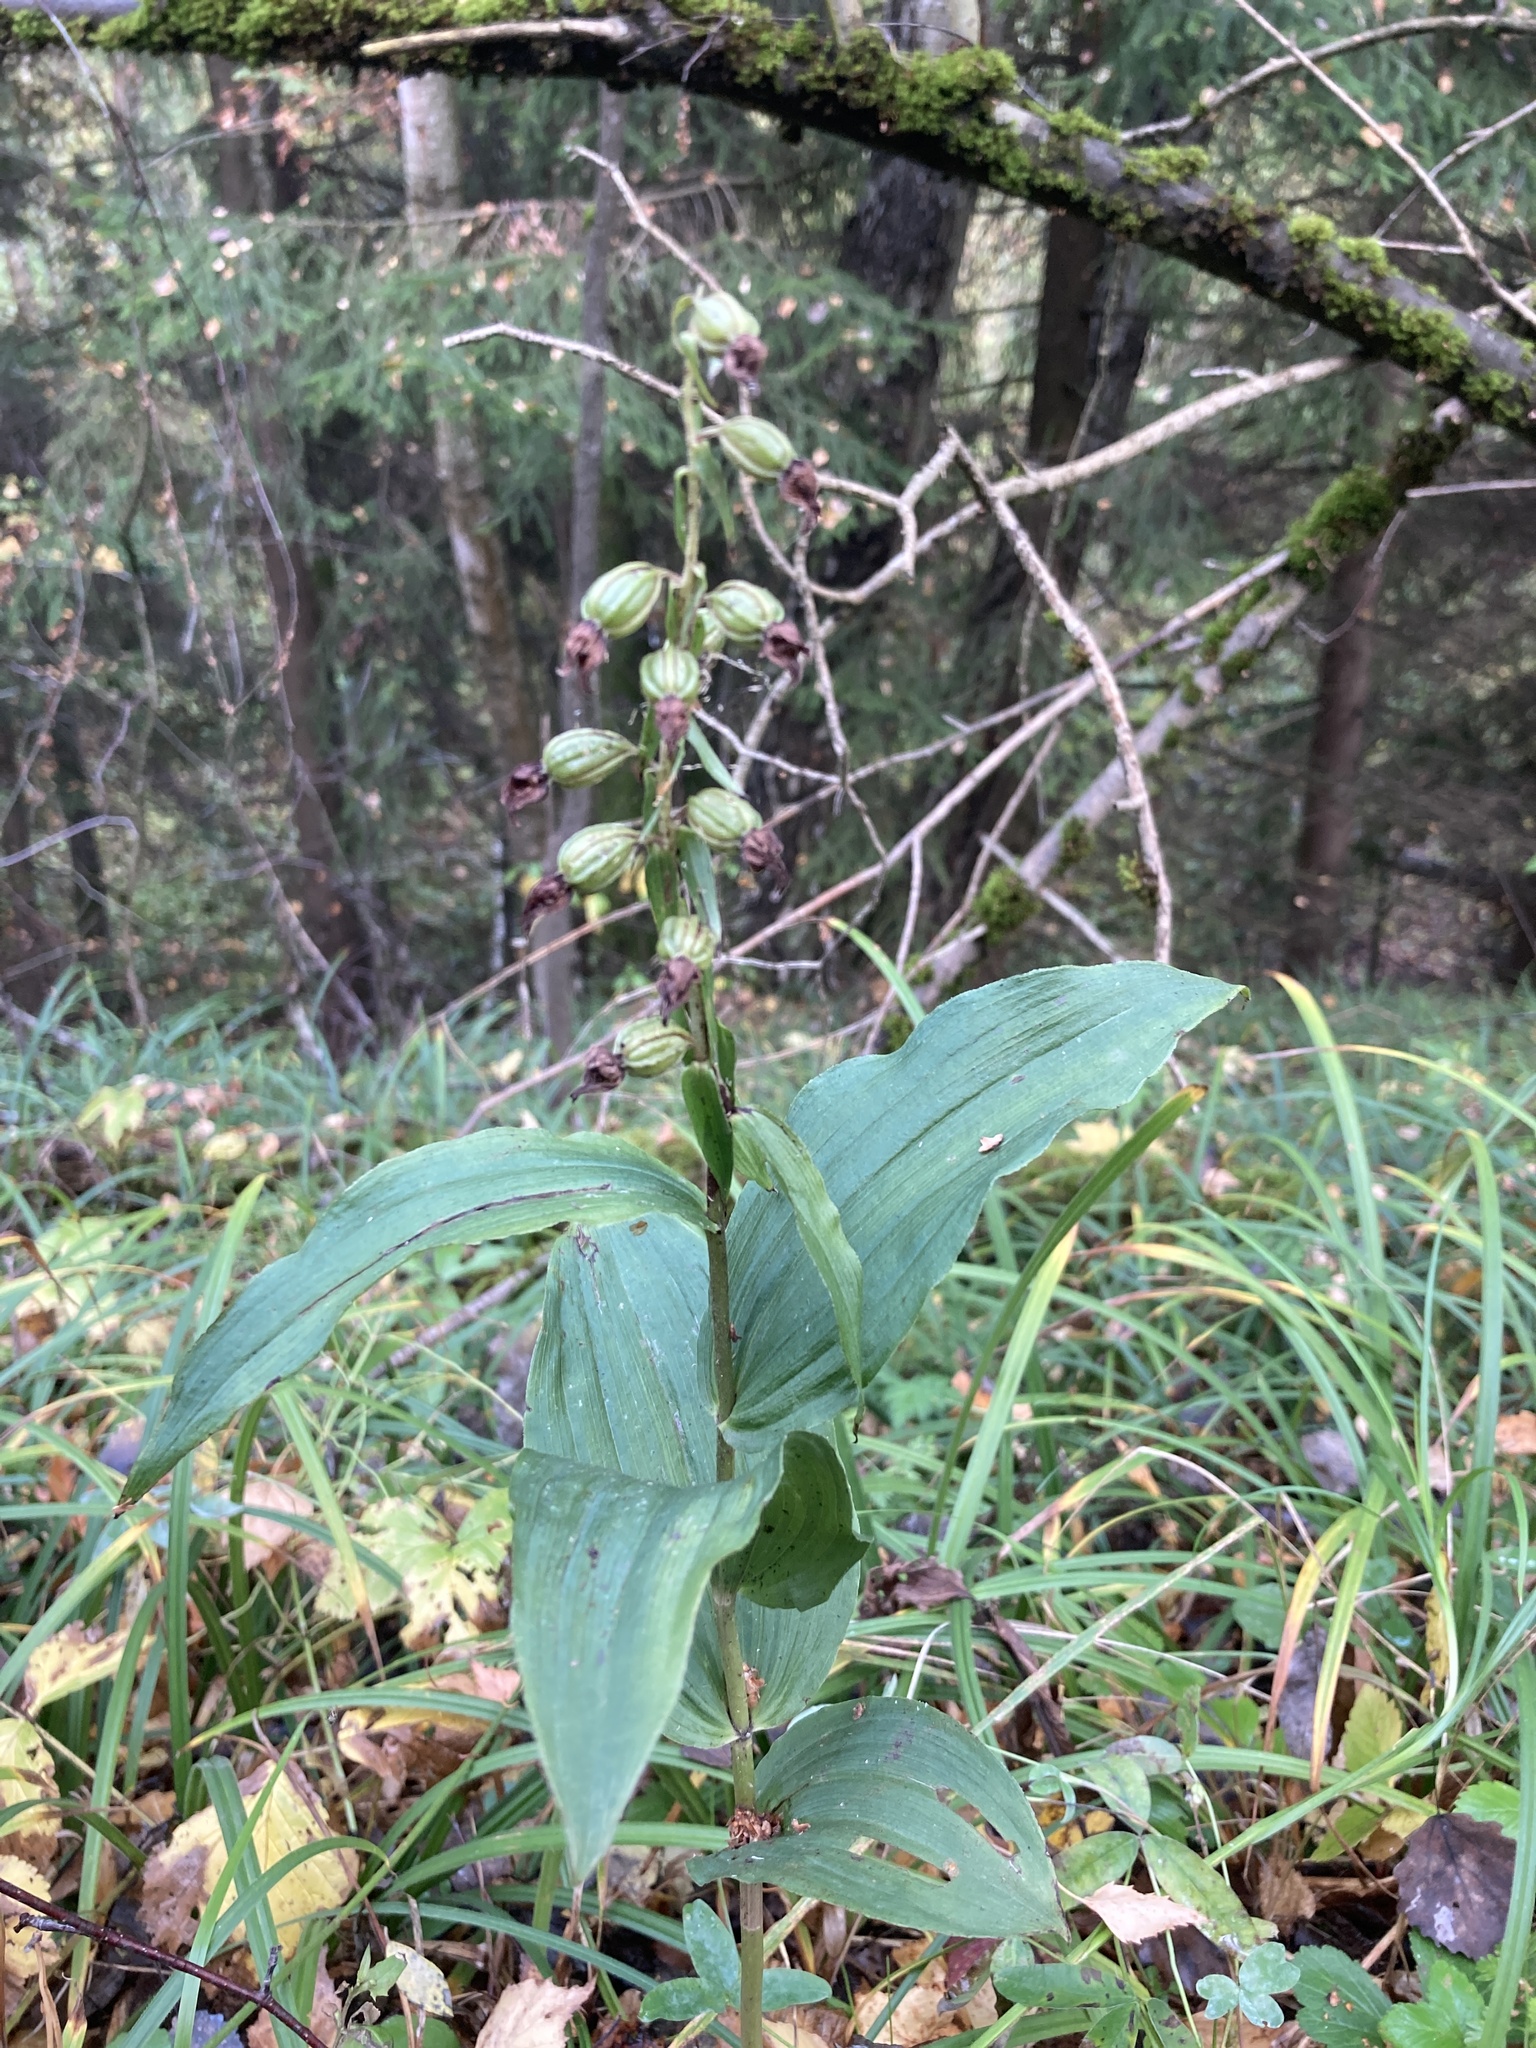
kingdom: Plantae
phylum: Tracheophyta
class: Liliopsida
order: Asparagales
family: Orchidaceae
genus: Epipactis
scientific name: Epipactis helleborine
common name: Broad-leaved helleborine
